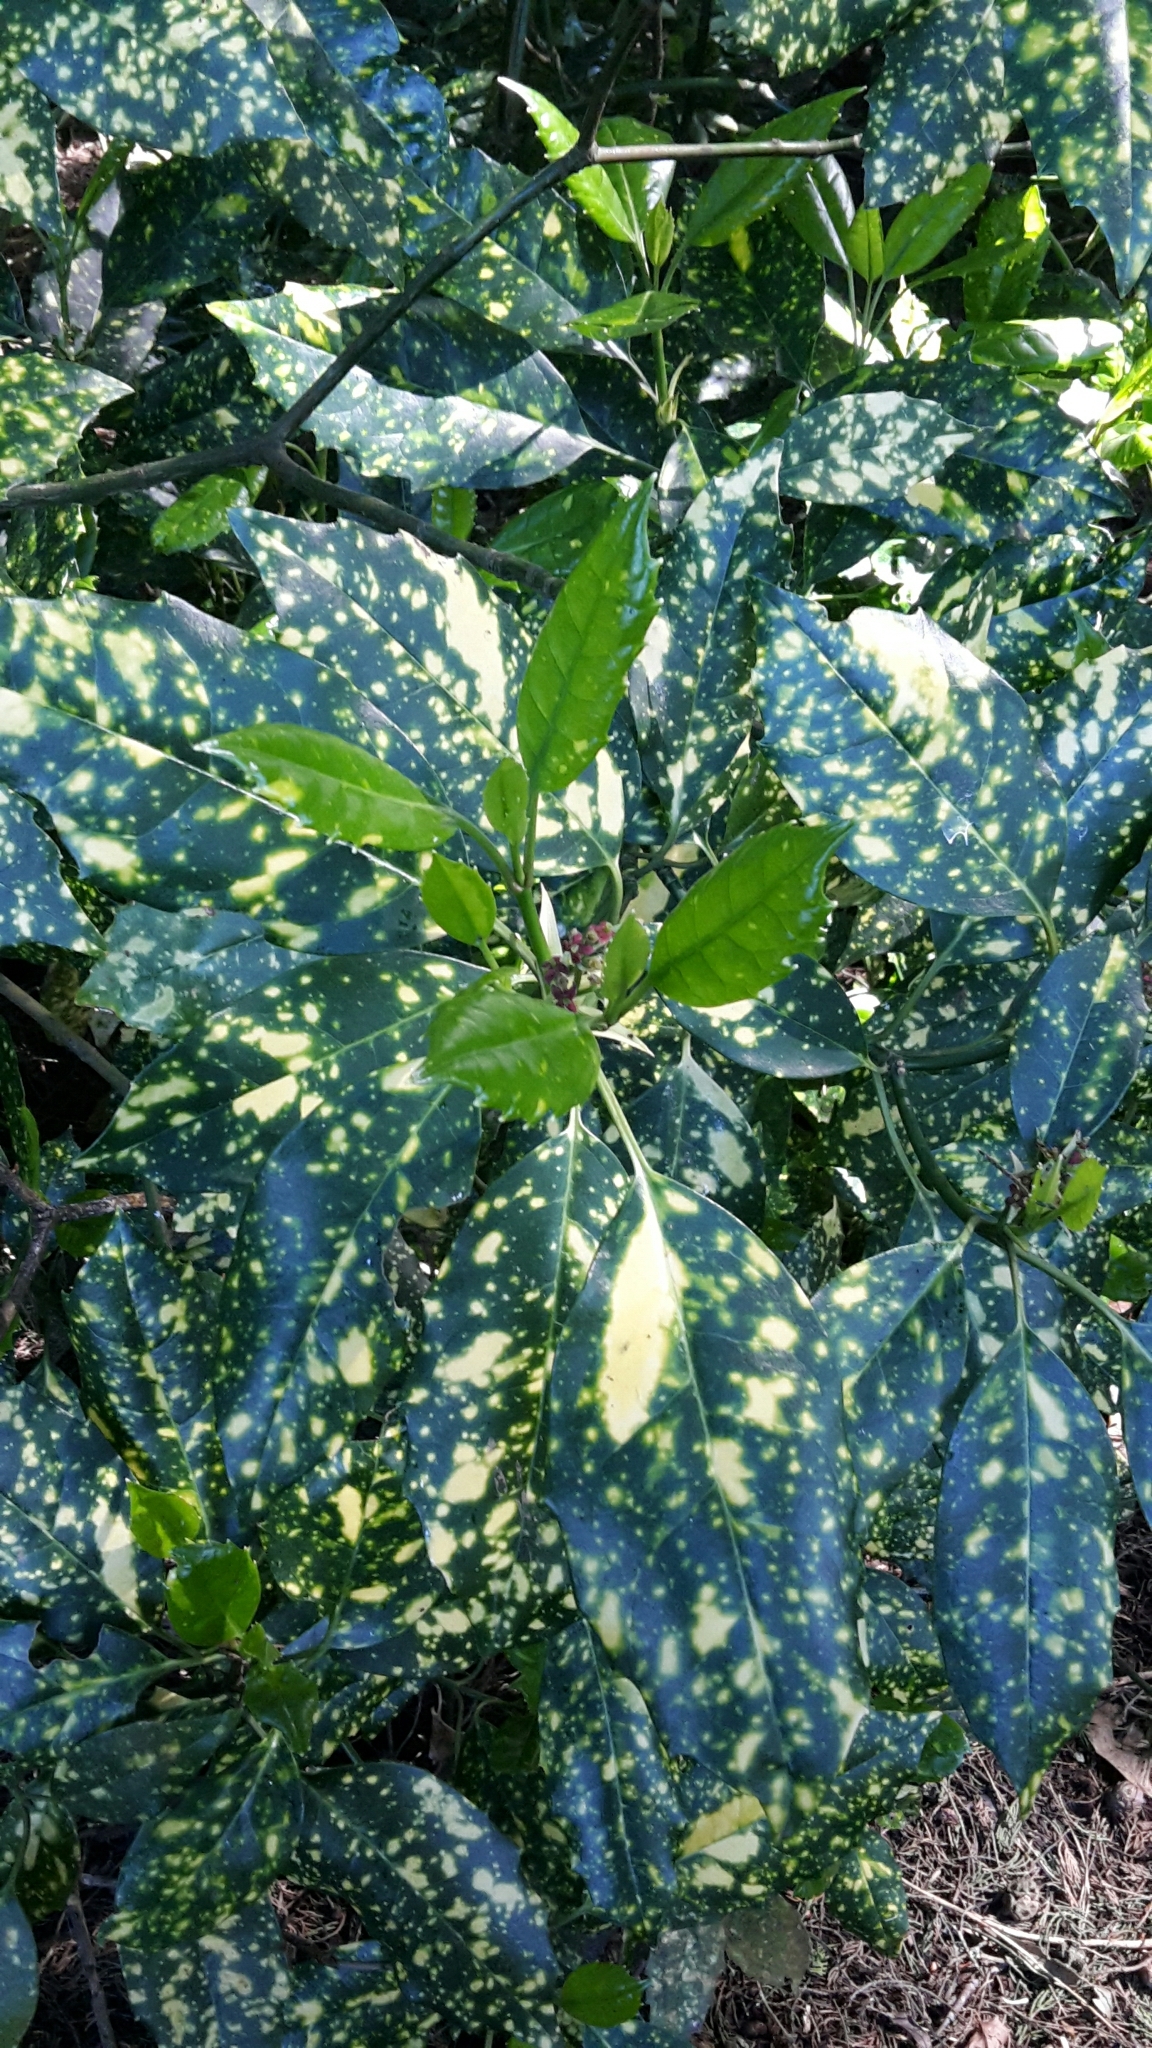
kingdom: Plantae
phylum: Tracheophyta
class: Magnoliopsida
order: Garryales
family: Garryaceae
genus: Aucuba
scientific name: Aucuba japonica
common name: Spotted-laurel
